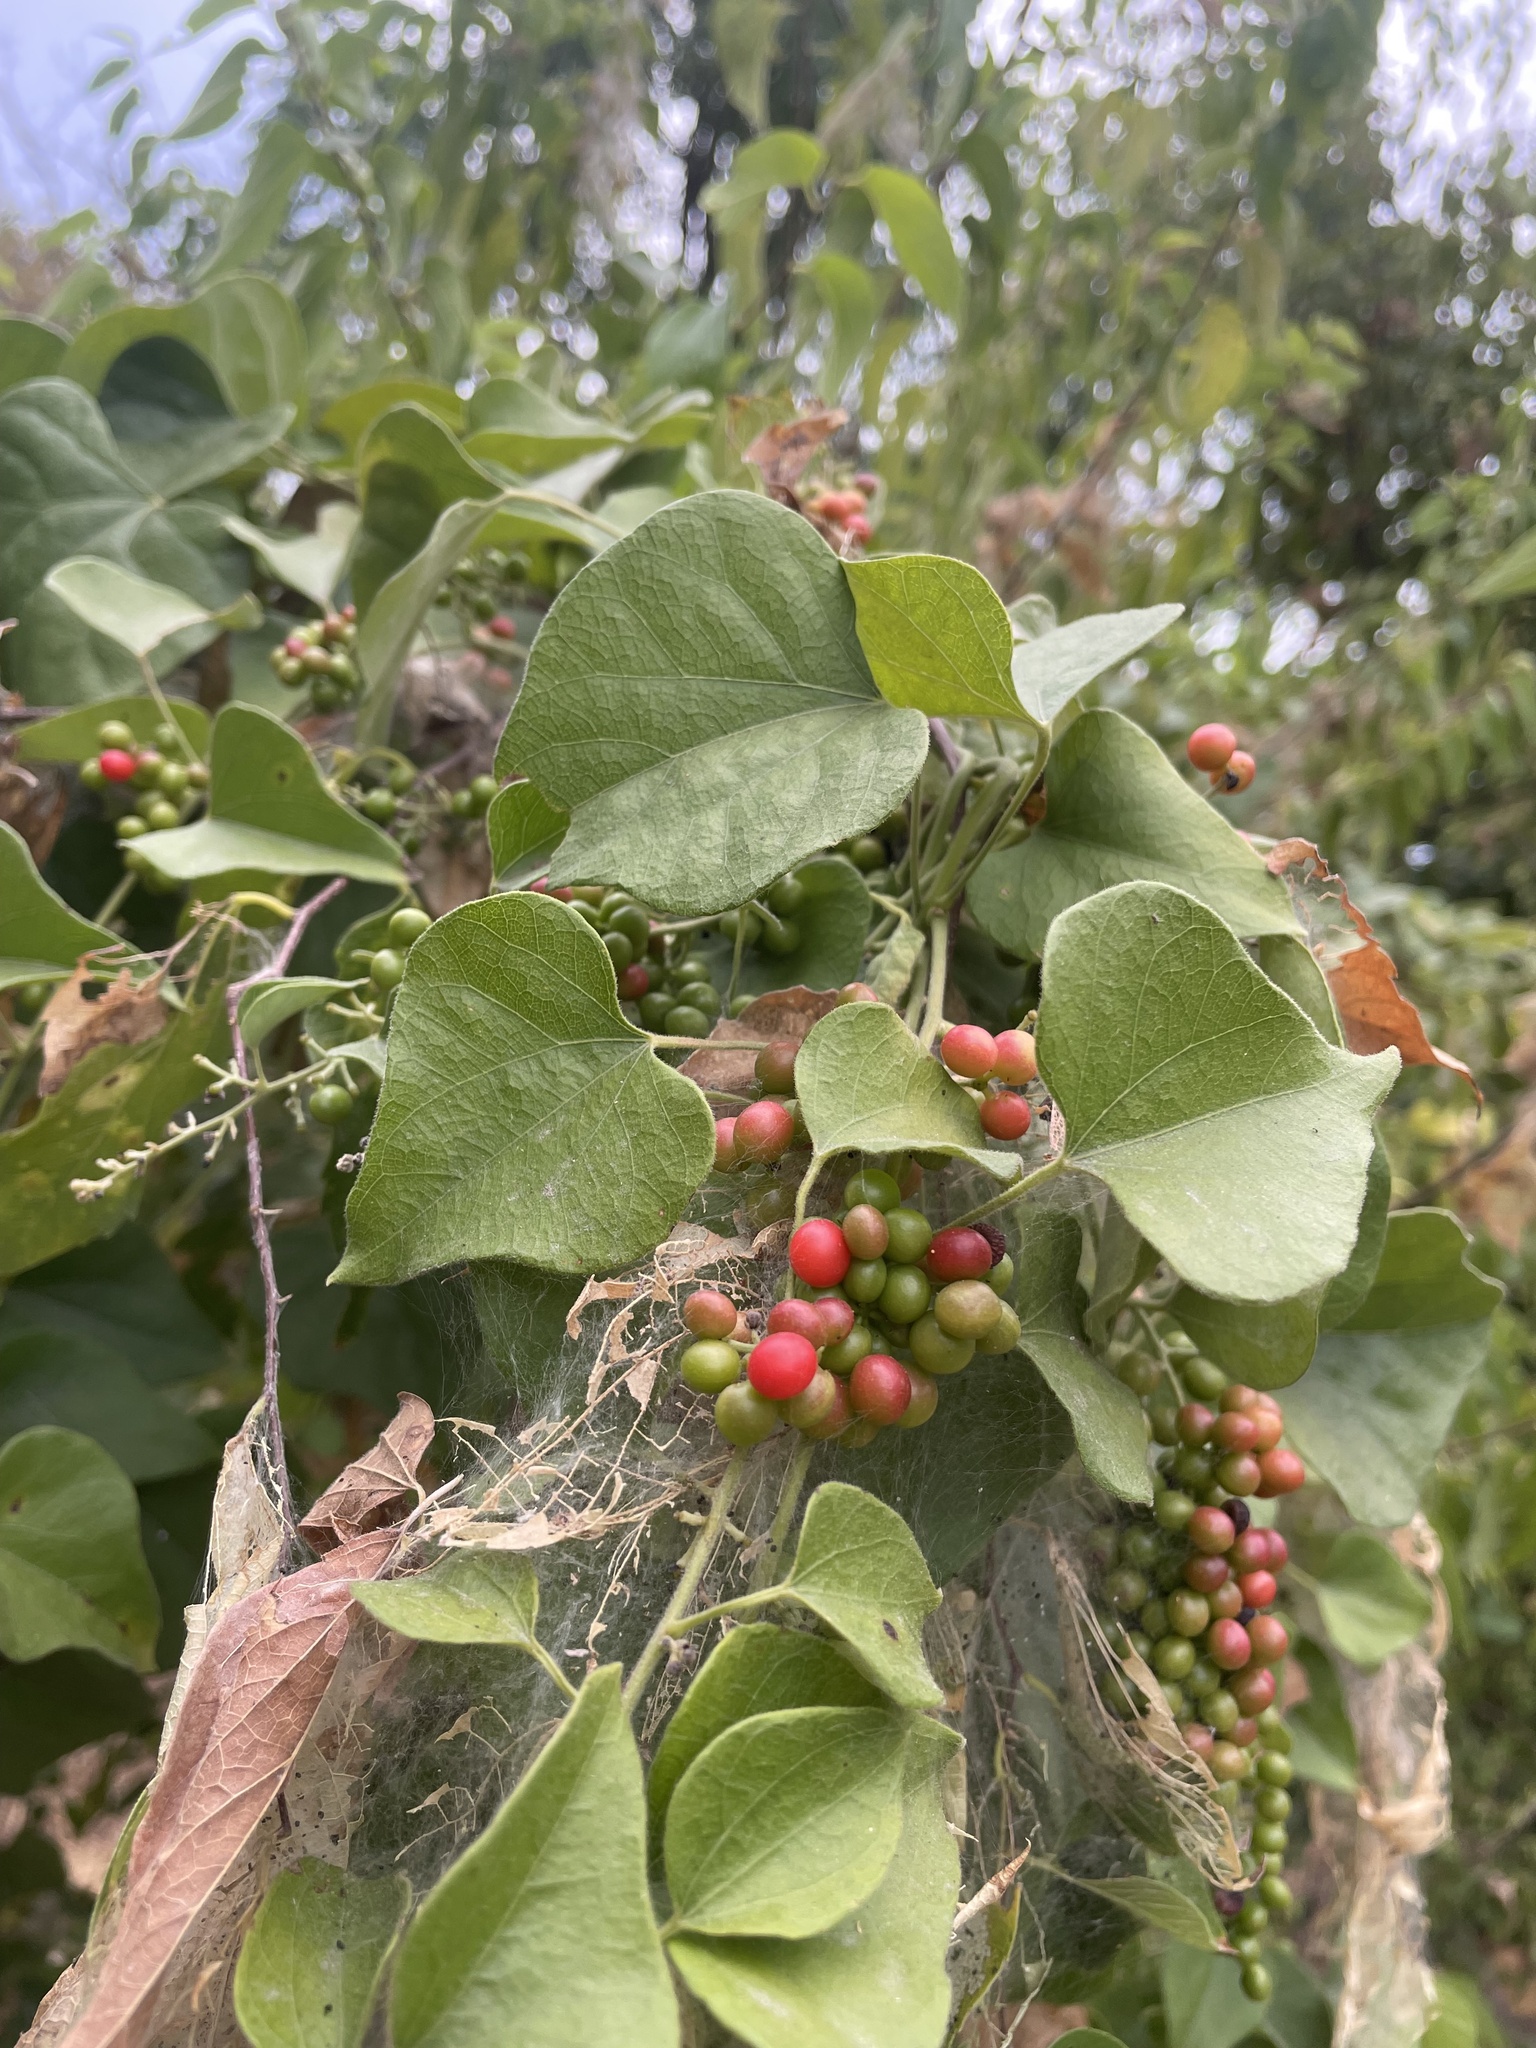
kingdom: Plantae
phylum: Tracheophyta
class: Magnoliopsida
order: Ranunculales
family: Menispermaceae
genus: Cocculus
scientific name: Cocculus carolinus
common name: Carolina moonseed
